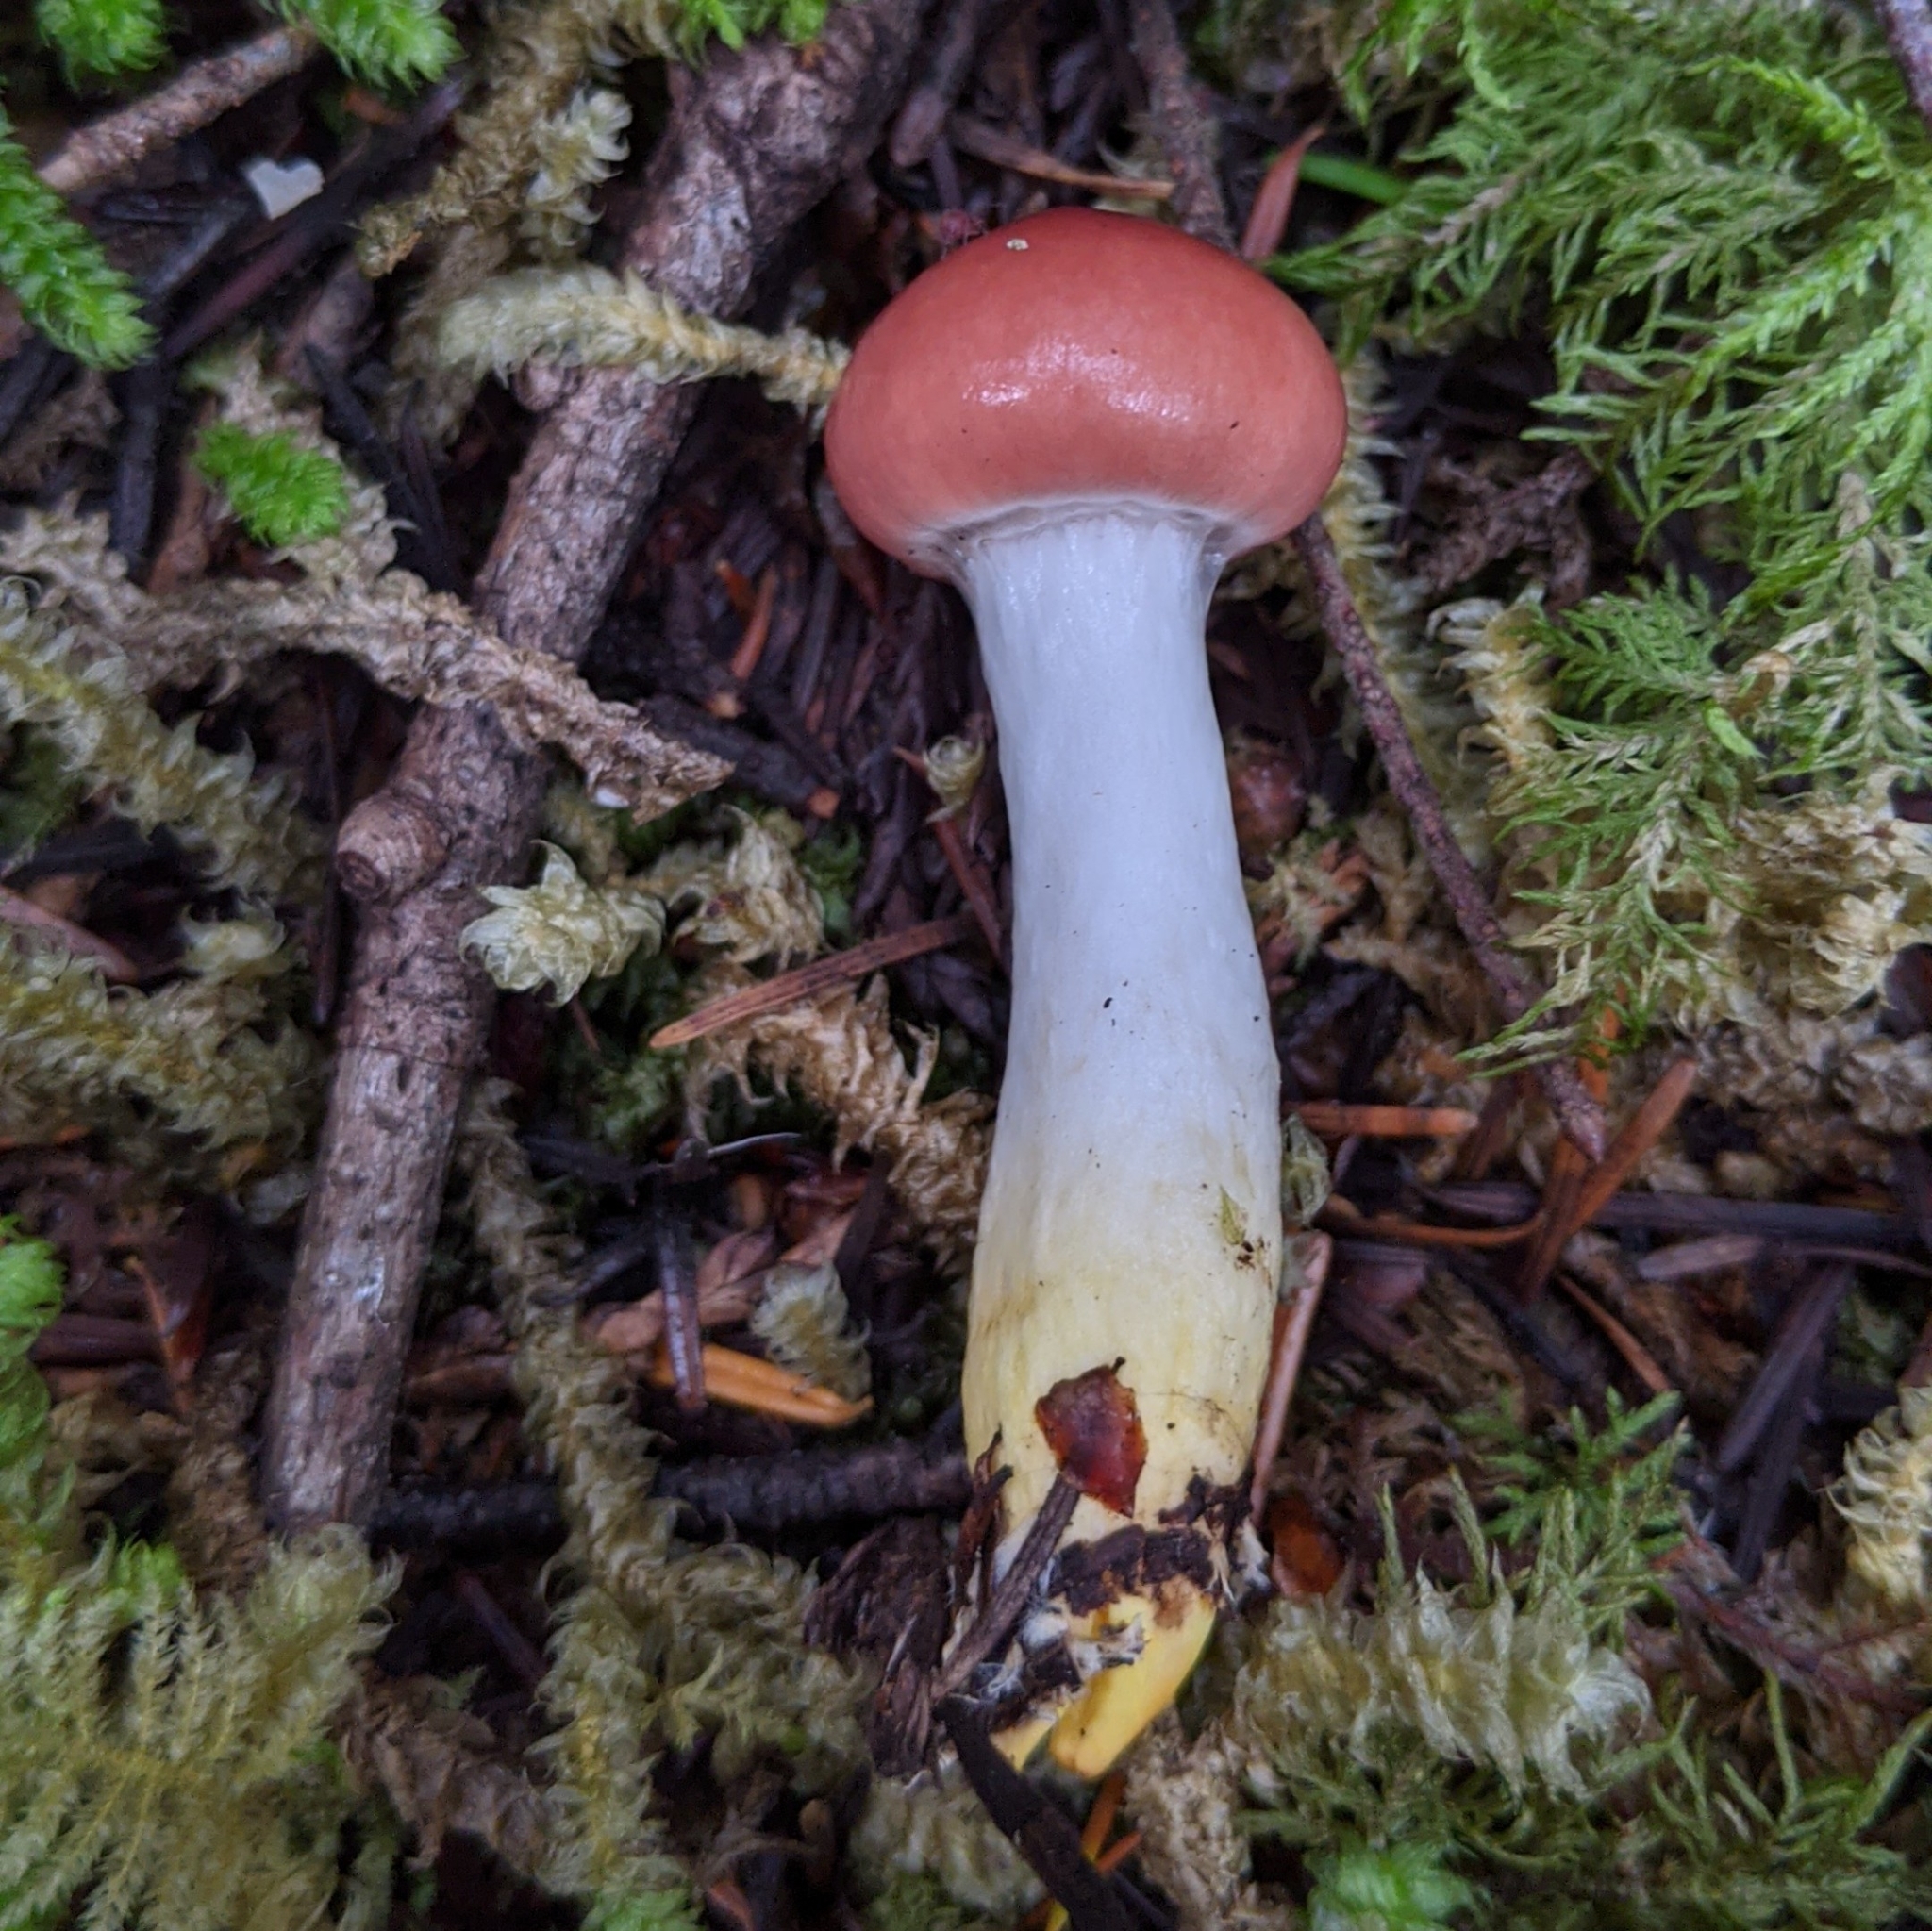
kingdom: Fungi
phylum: Basidiomycota
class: Agaricomycetes
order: Boletales
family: Gomphidiaceae
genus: Gomphidius
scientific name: Gomphidius subroseus
